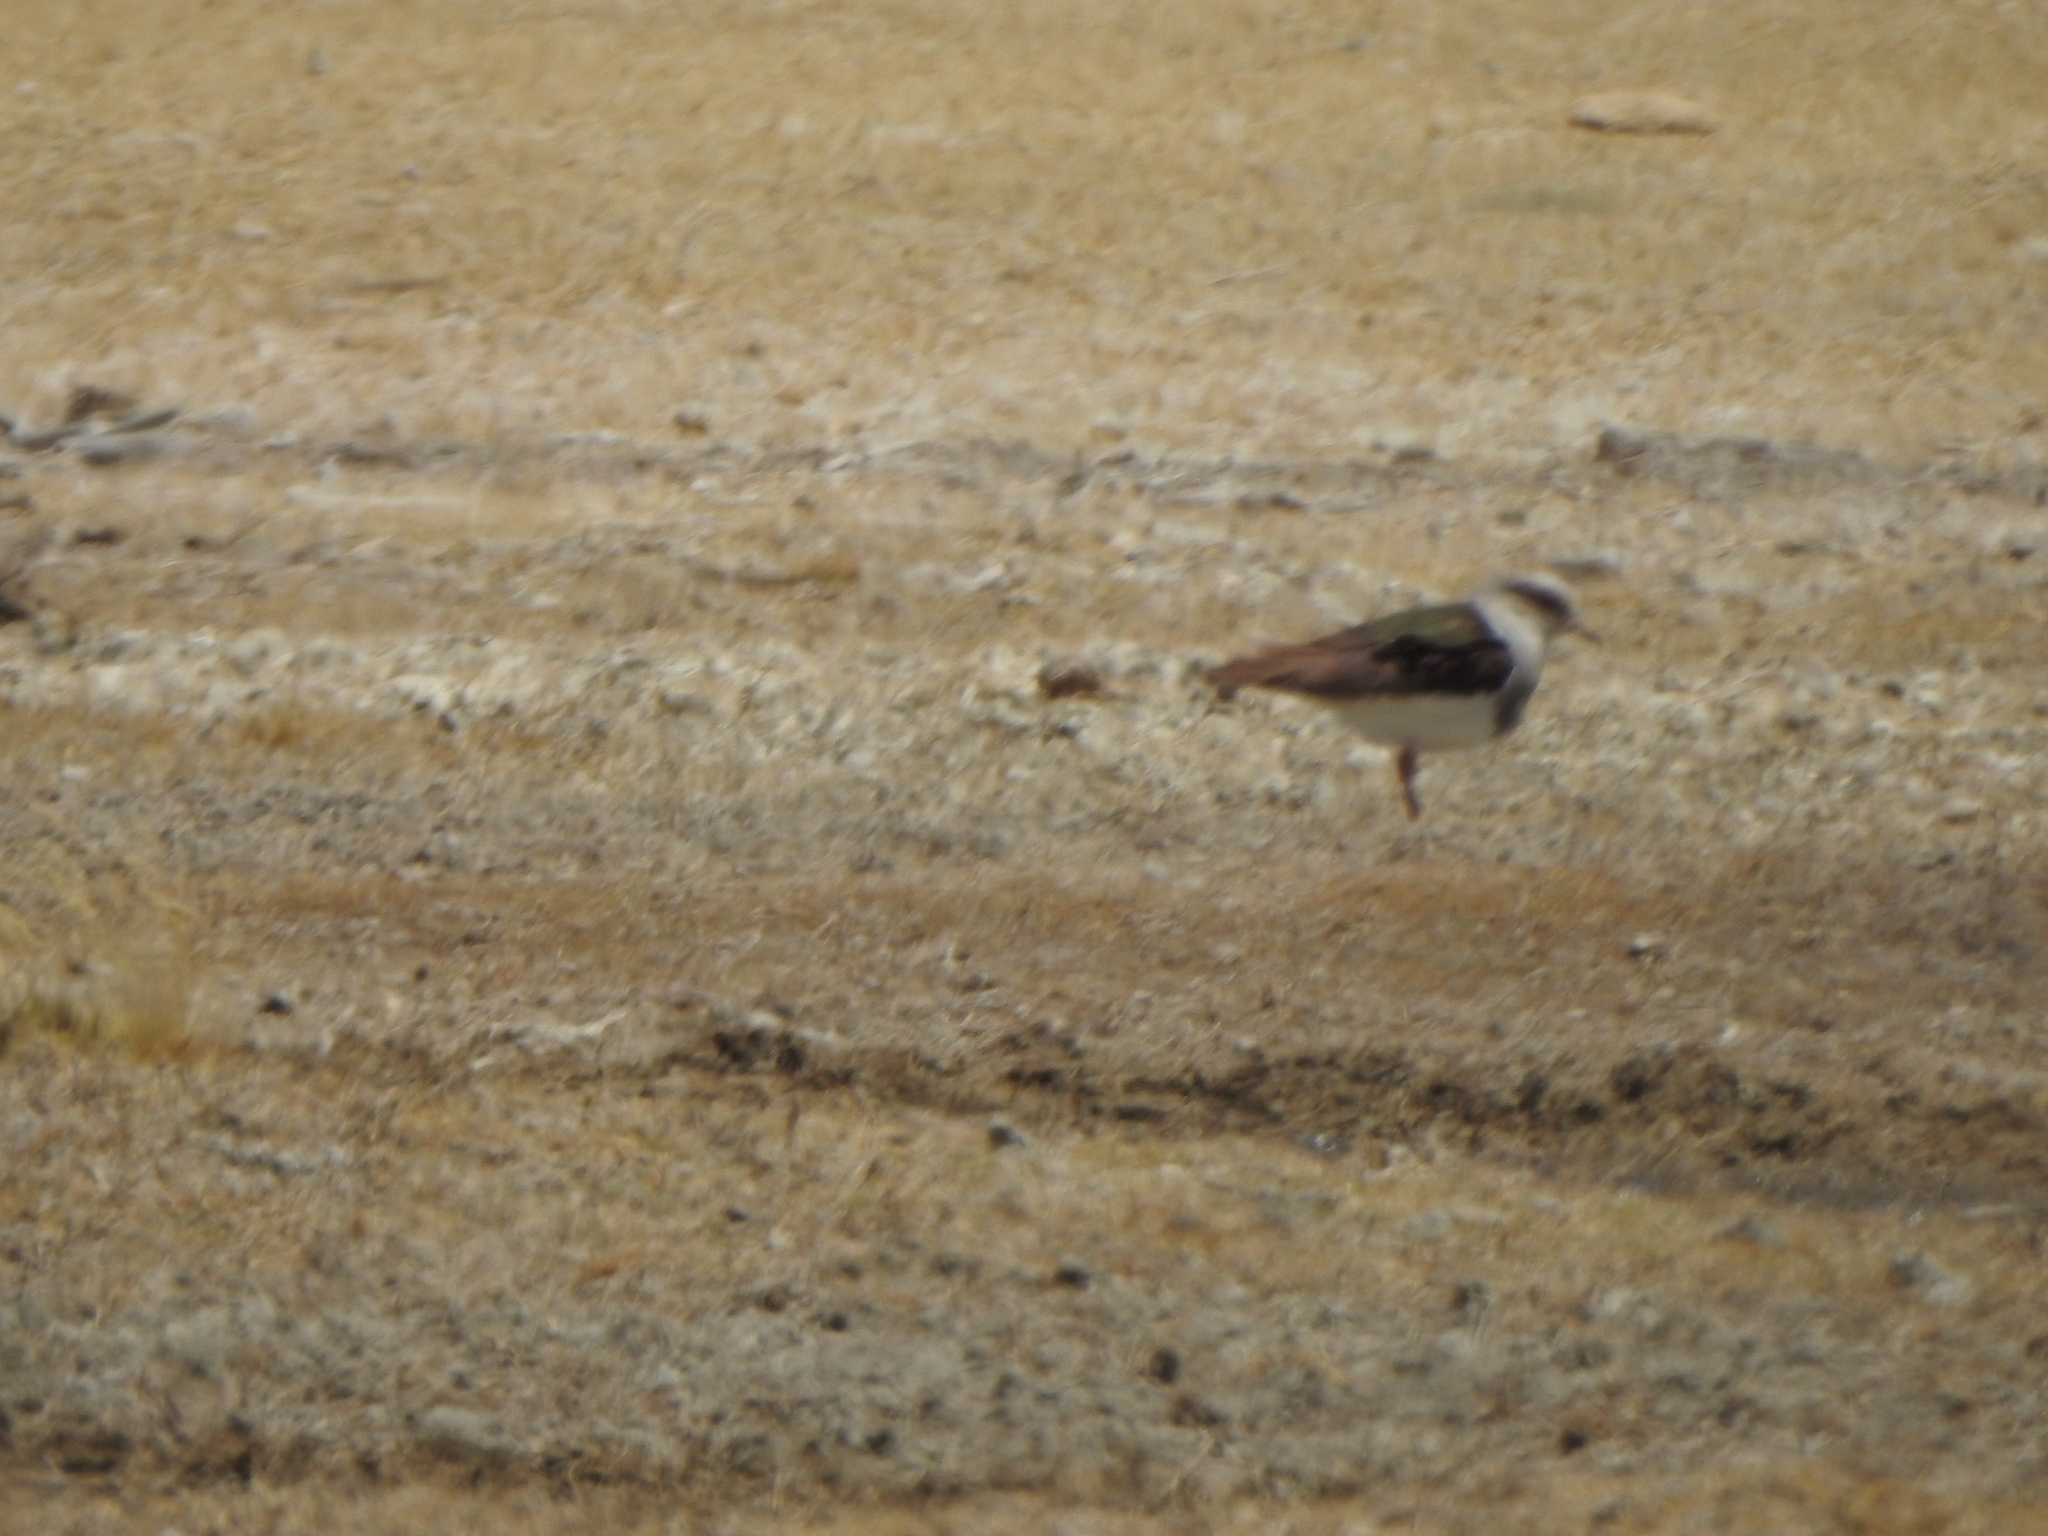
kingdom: Animalia
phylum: Chordata
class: Aves
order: Charadriiformes
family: Charadriidae
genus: Vanellus
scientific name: Vanellus resplendens
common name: Andean lapwing
